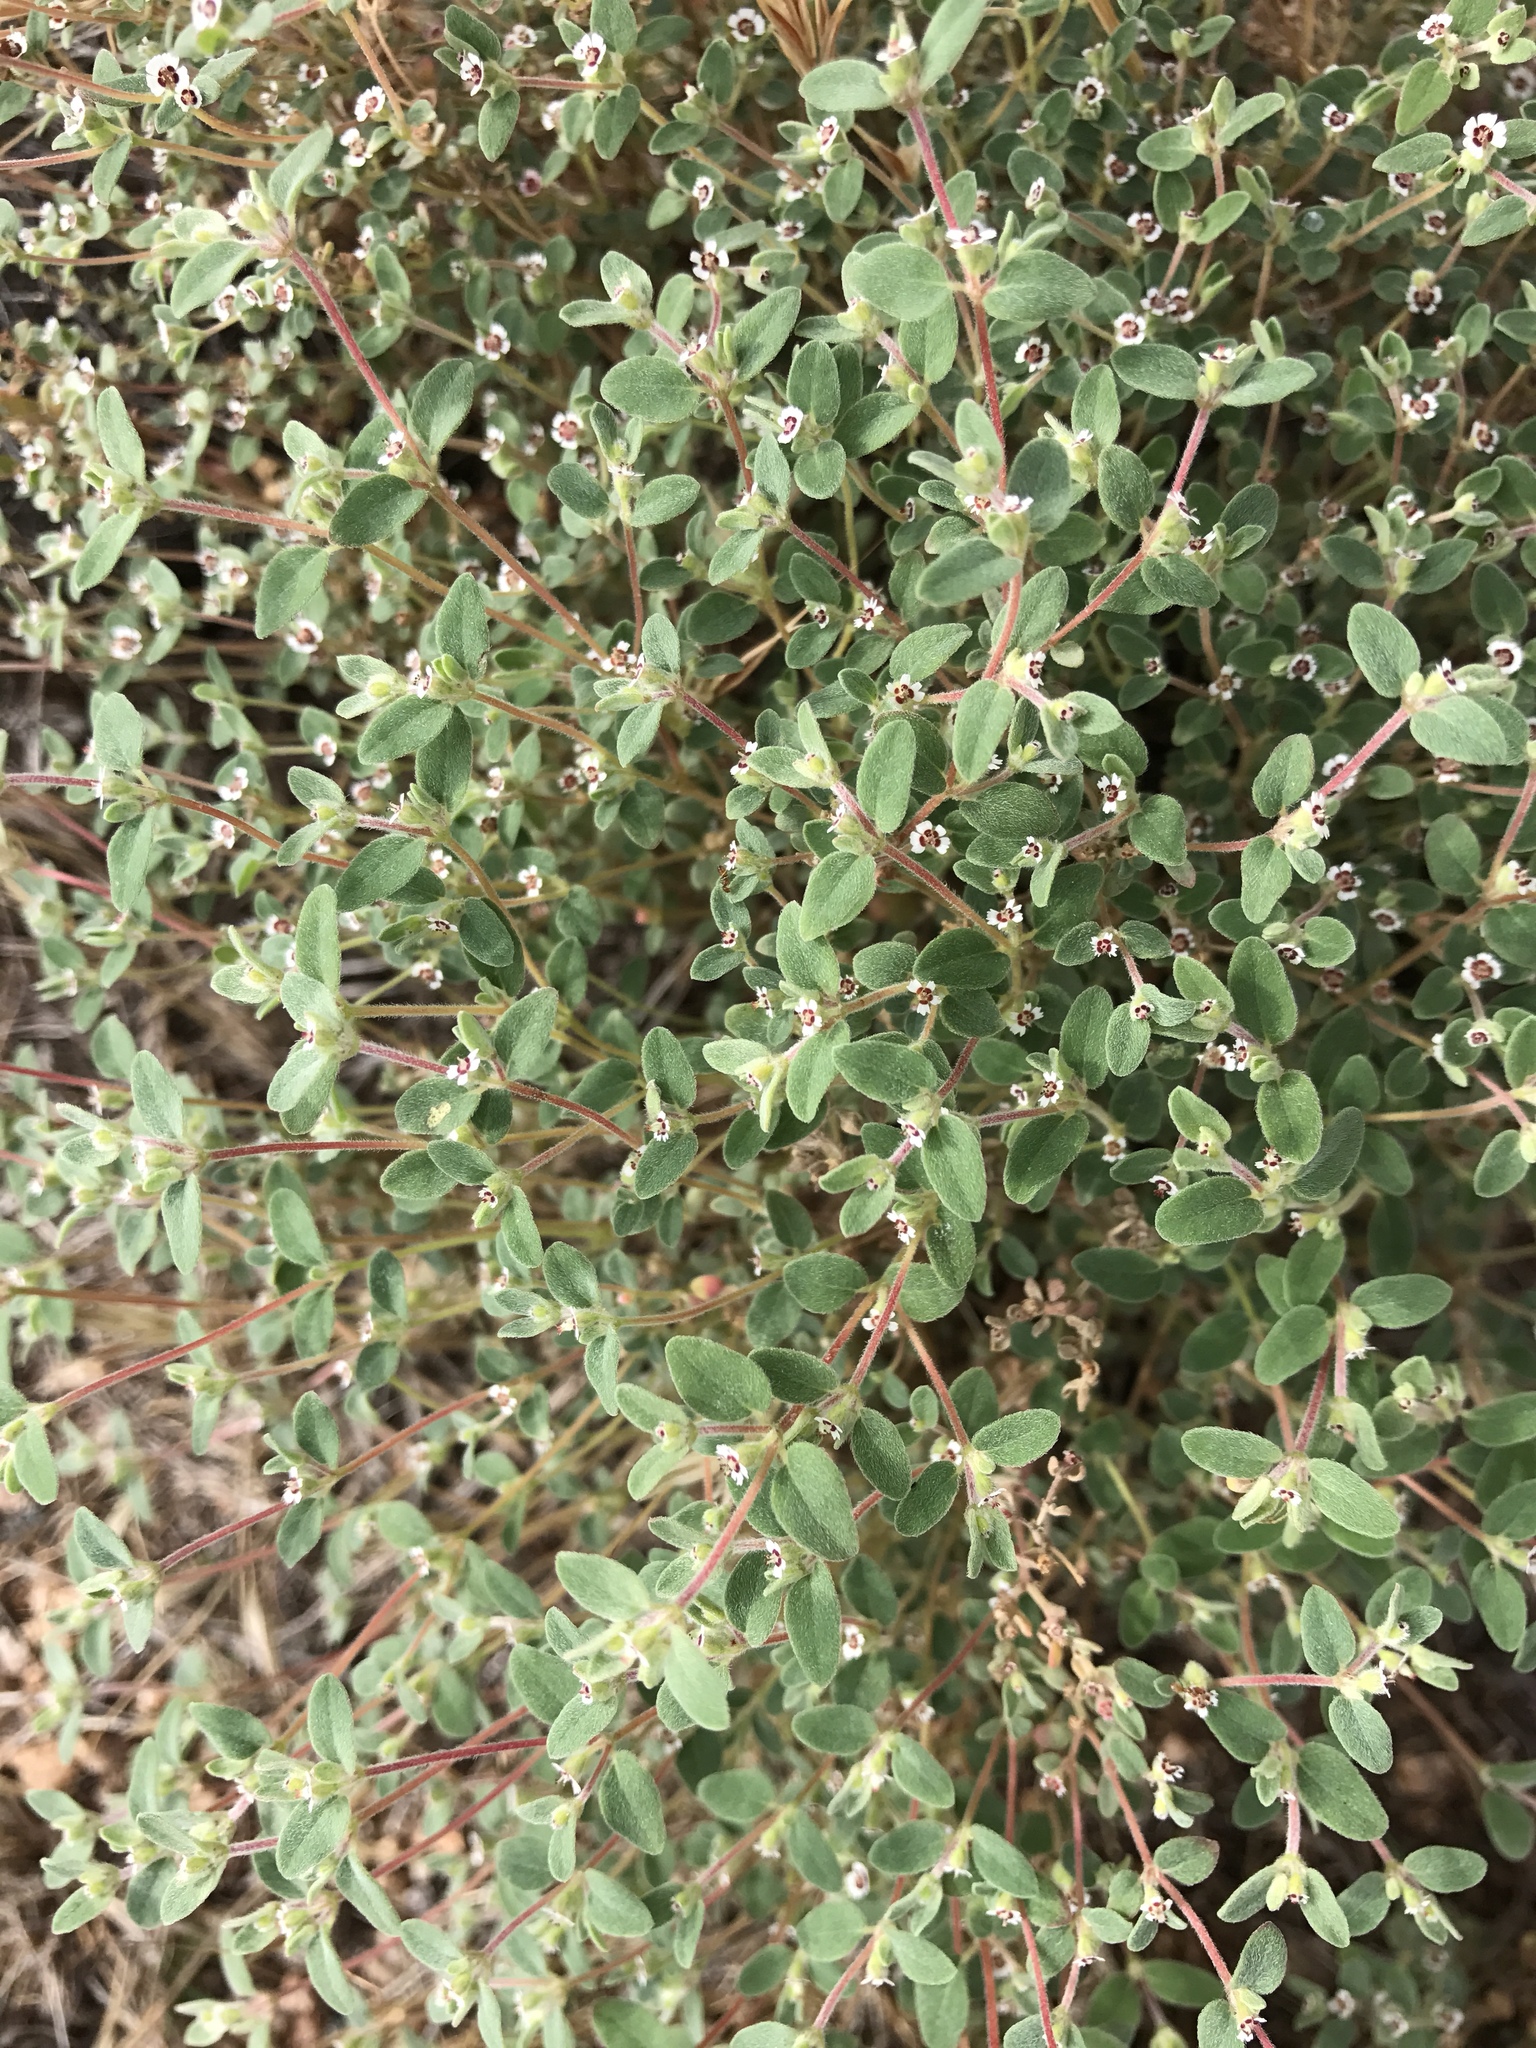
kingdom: Plantae
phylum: Tracheophyta
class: Magnoliopsida
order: Malpighiales
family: Euphorbiaceae
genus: Euphorbia
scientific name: Euphorbia melanadenia
